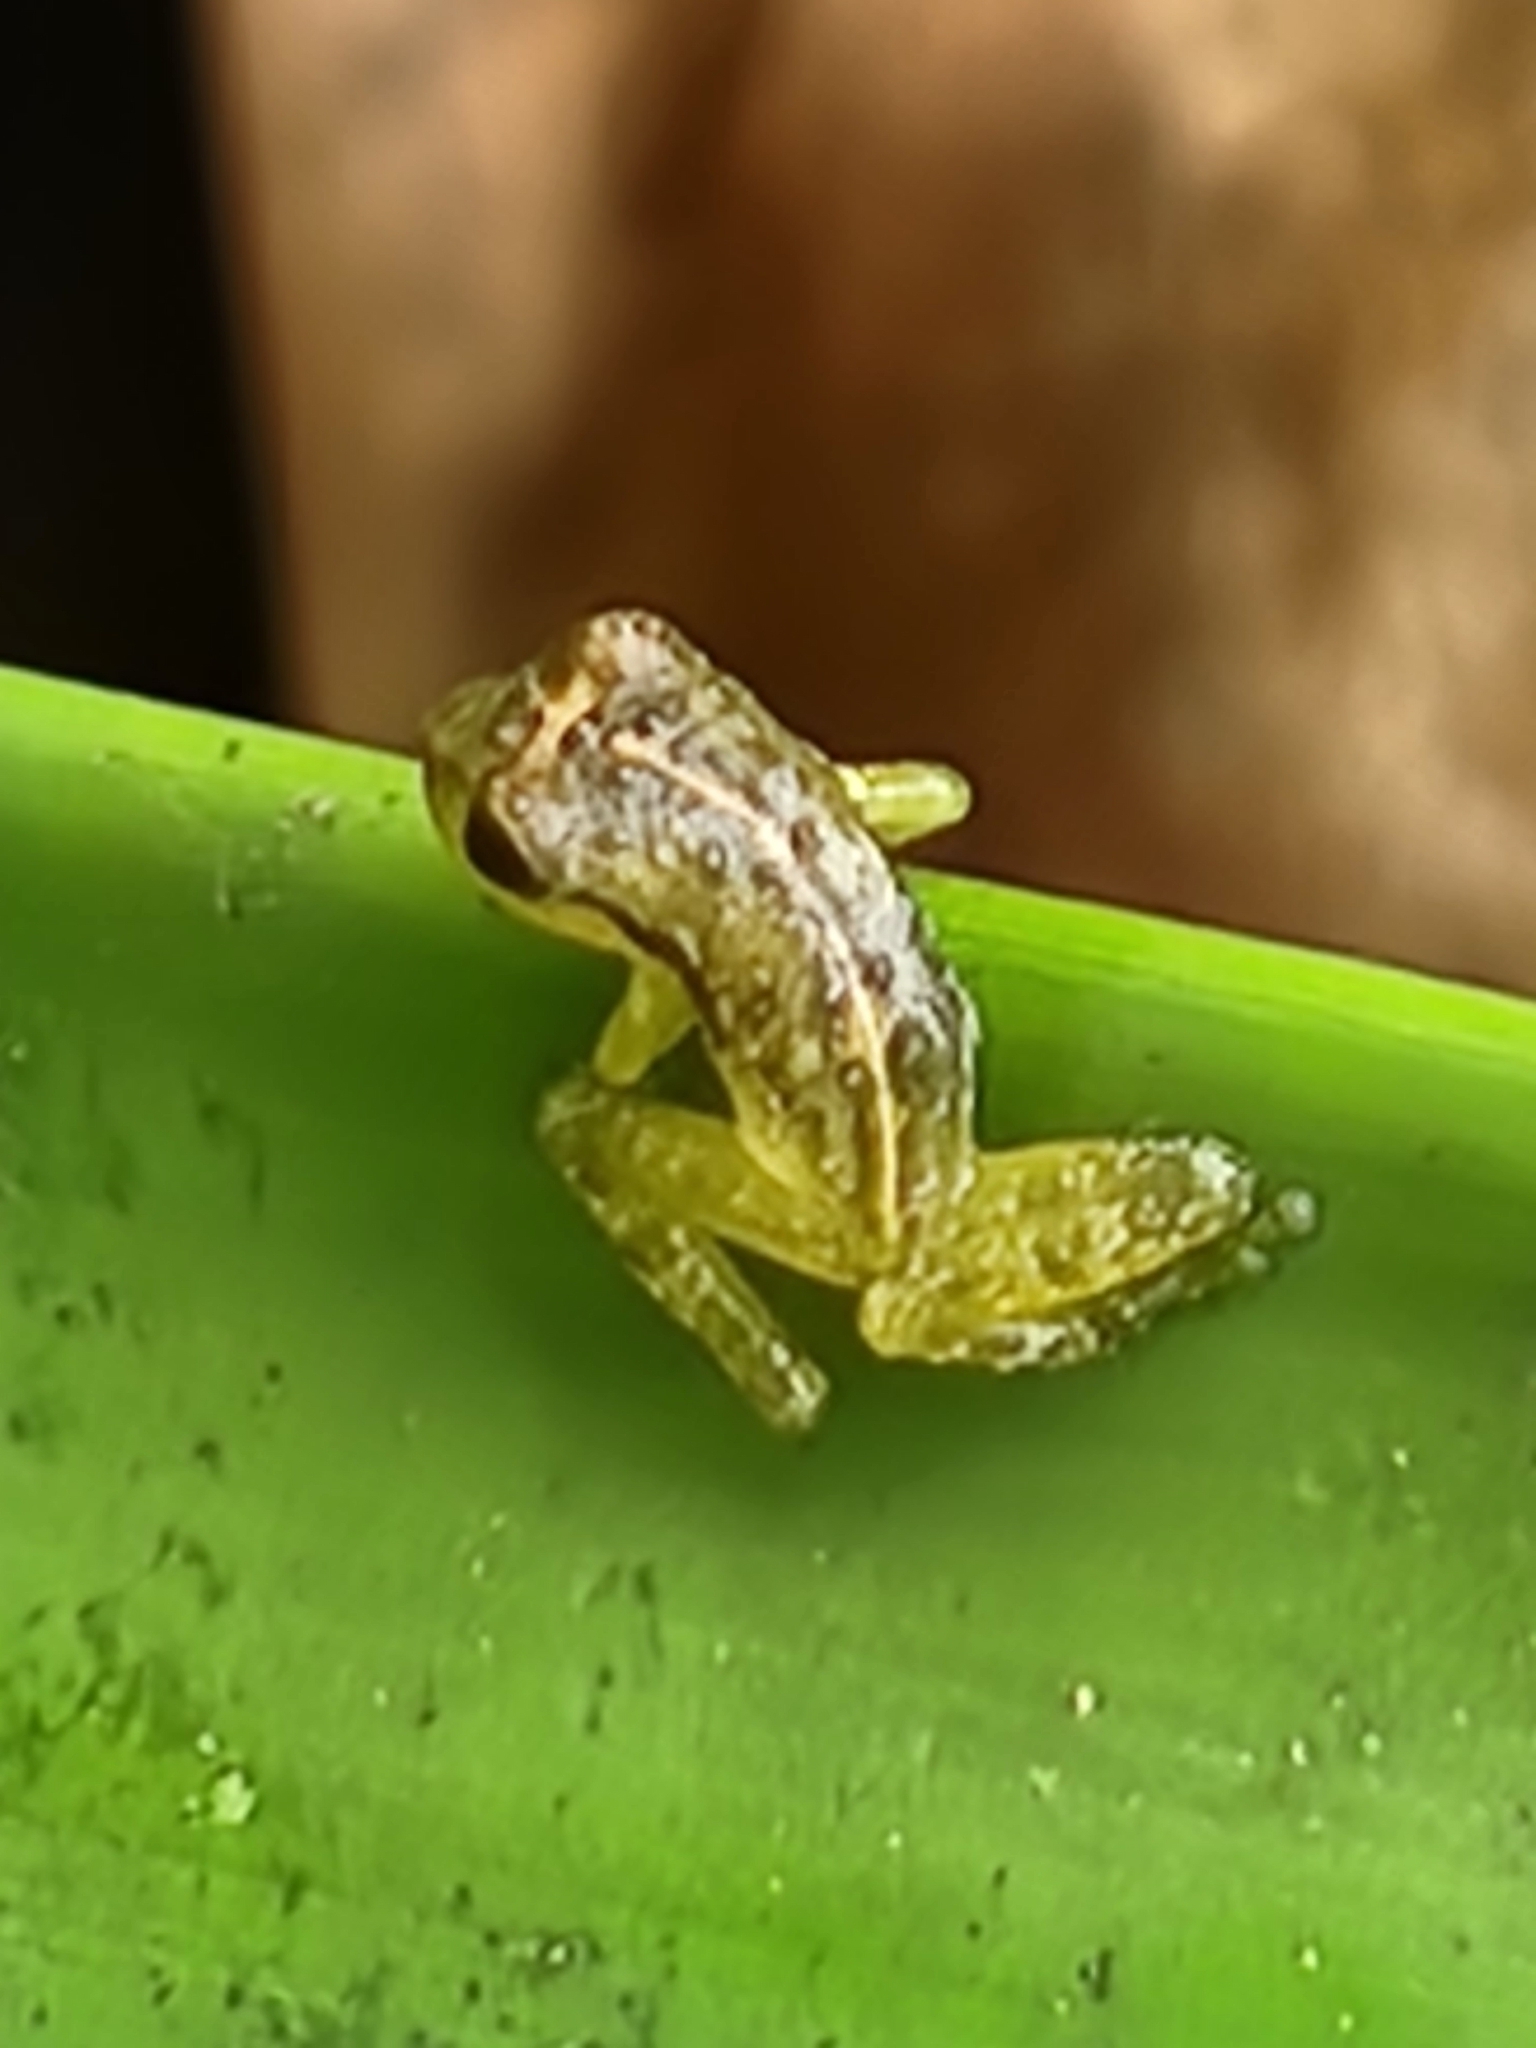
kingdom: Animalia
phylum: Chordata
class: Amphibia
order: Anura
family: Craugastoridae
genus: Tachiramantis
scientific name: Tachiramantis
